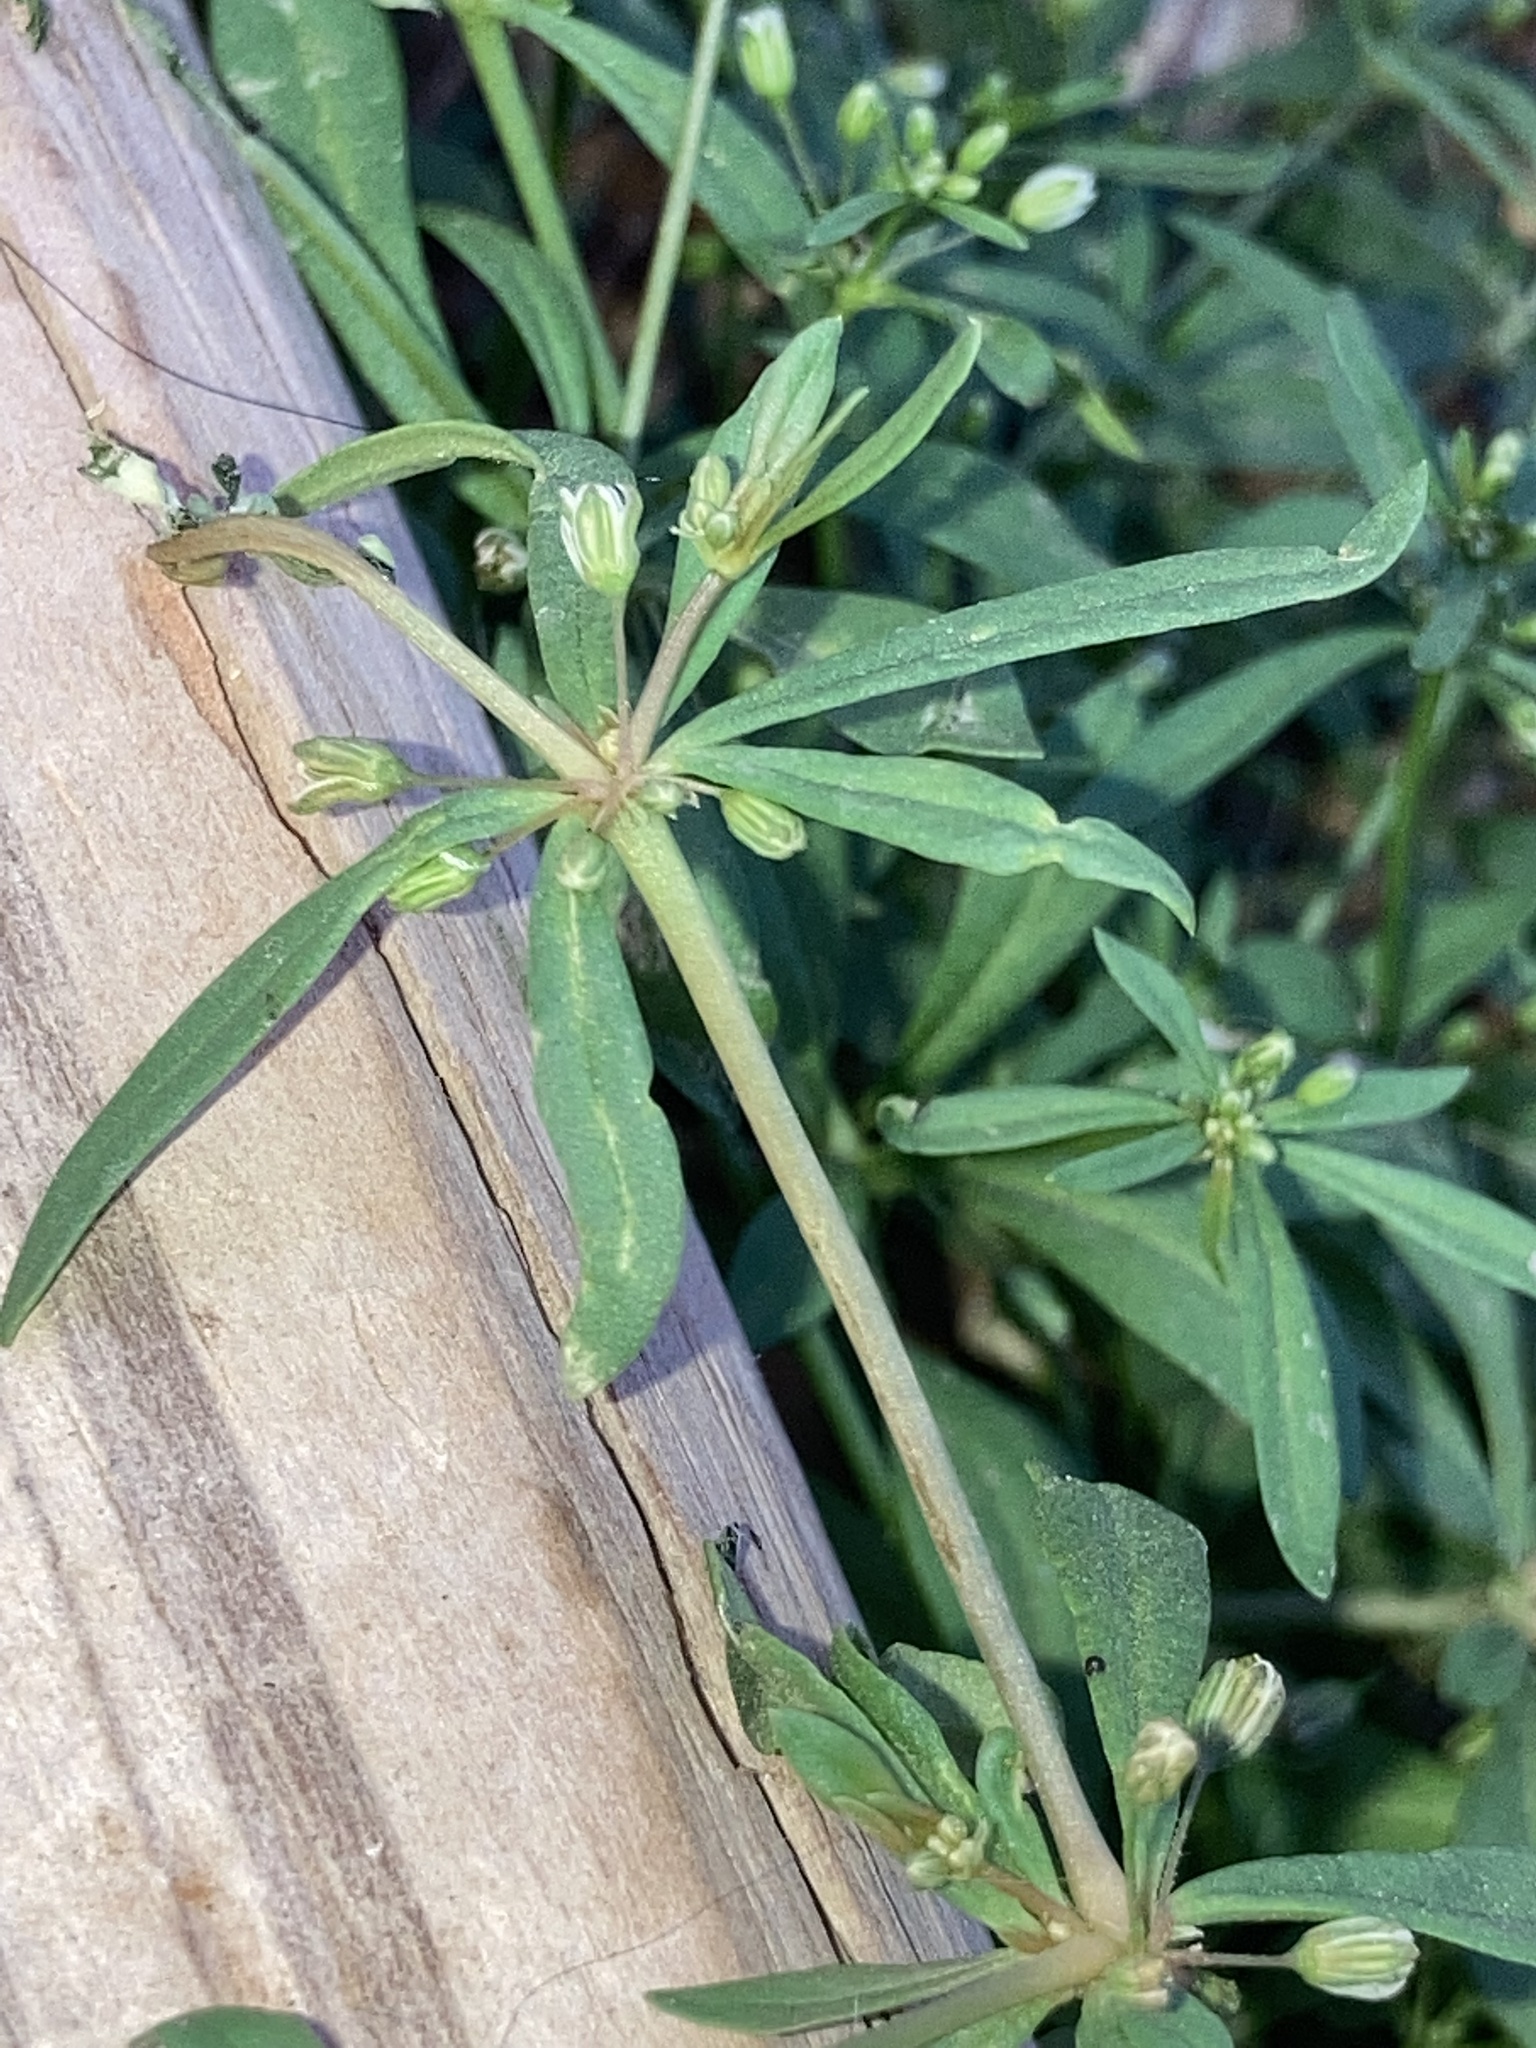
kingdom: Plantae
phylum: Tracheophyta
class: Magnoliopsida
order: Caryophyllales
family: Molluginaceae
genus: Mollugo
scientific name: Mollugo verticillata
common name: Green carpetweed
